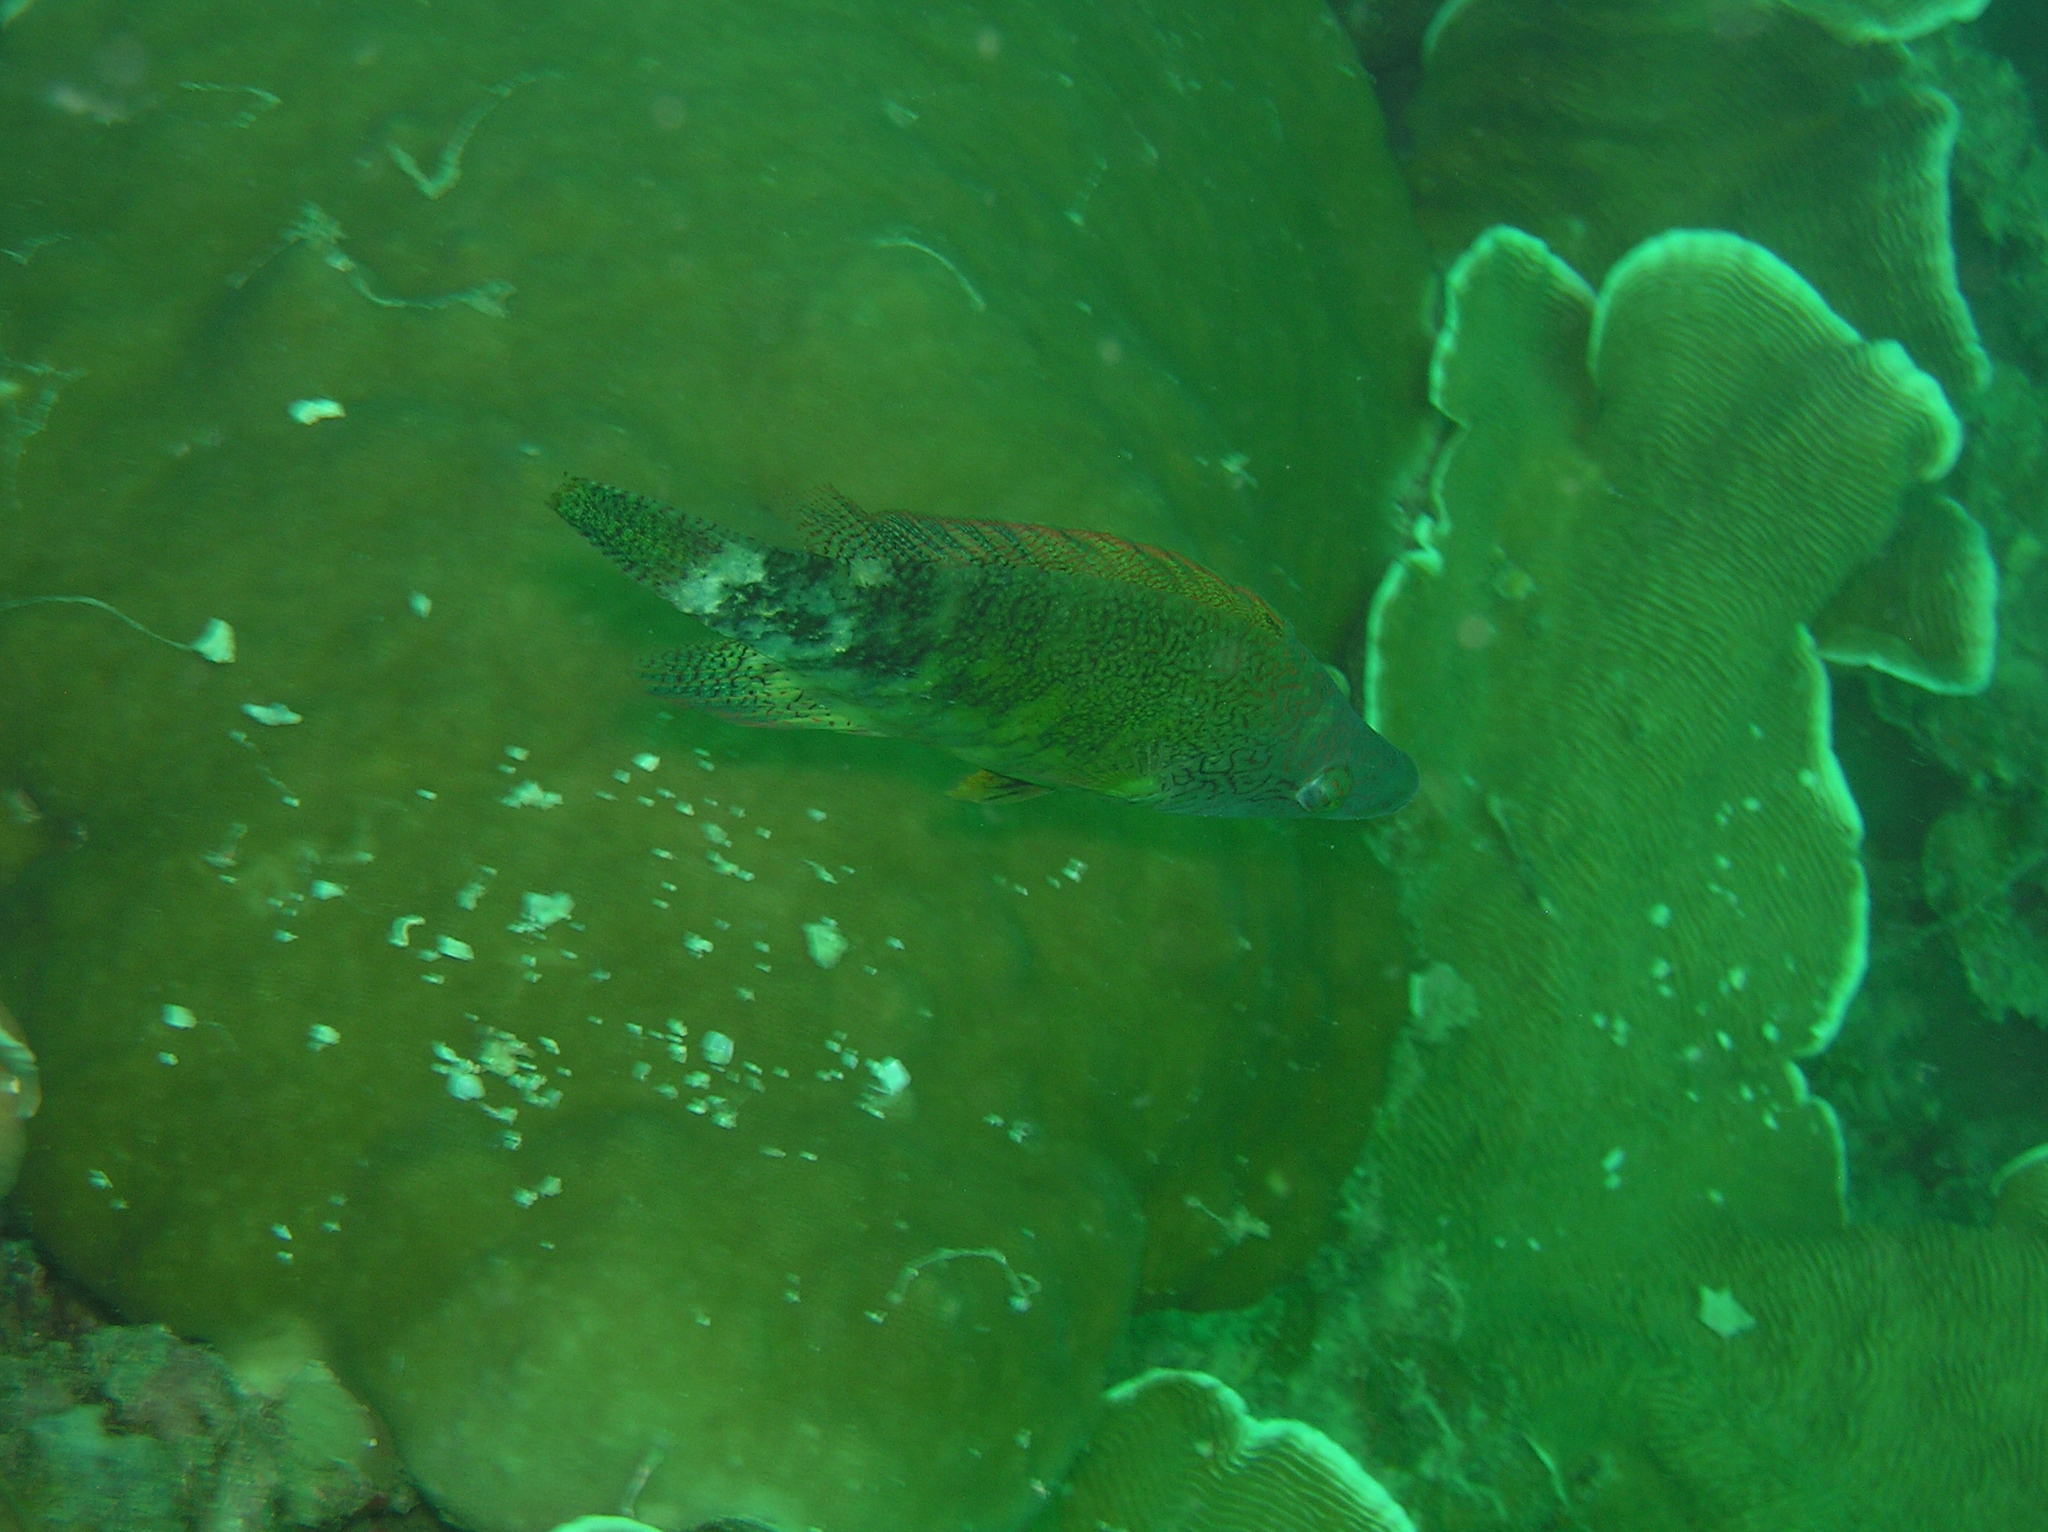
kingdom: Animalia
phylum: Chordata
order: Perciformes
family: Labridae
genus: Oxycheilinus
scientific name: Oxycheilinus celebicus
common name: Celebes maori wrasse
